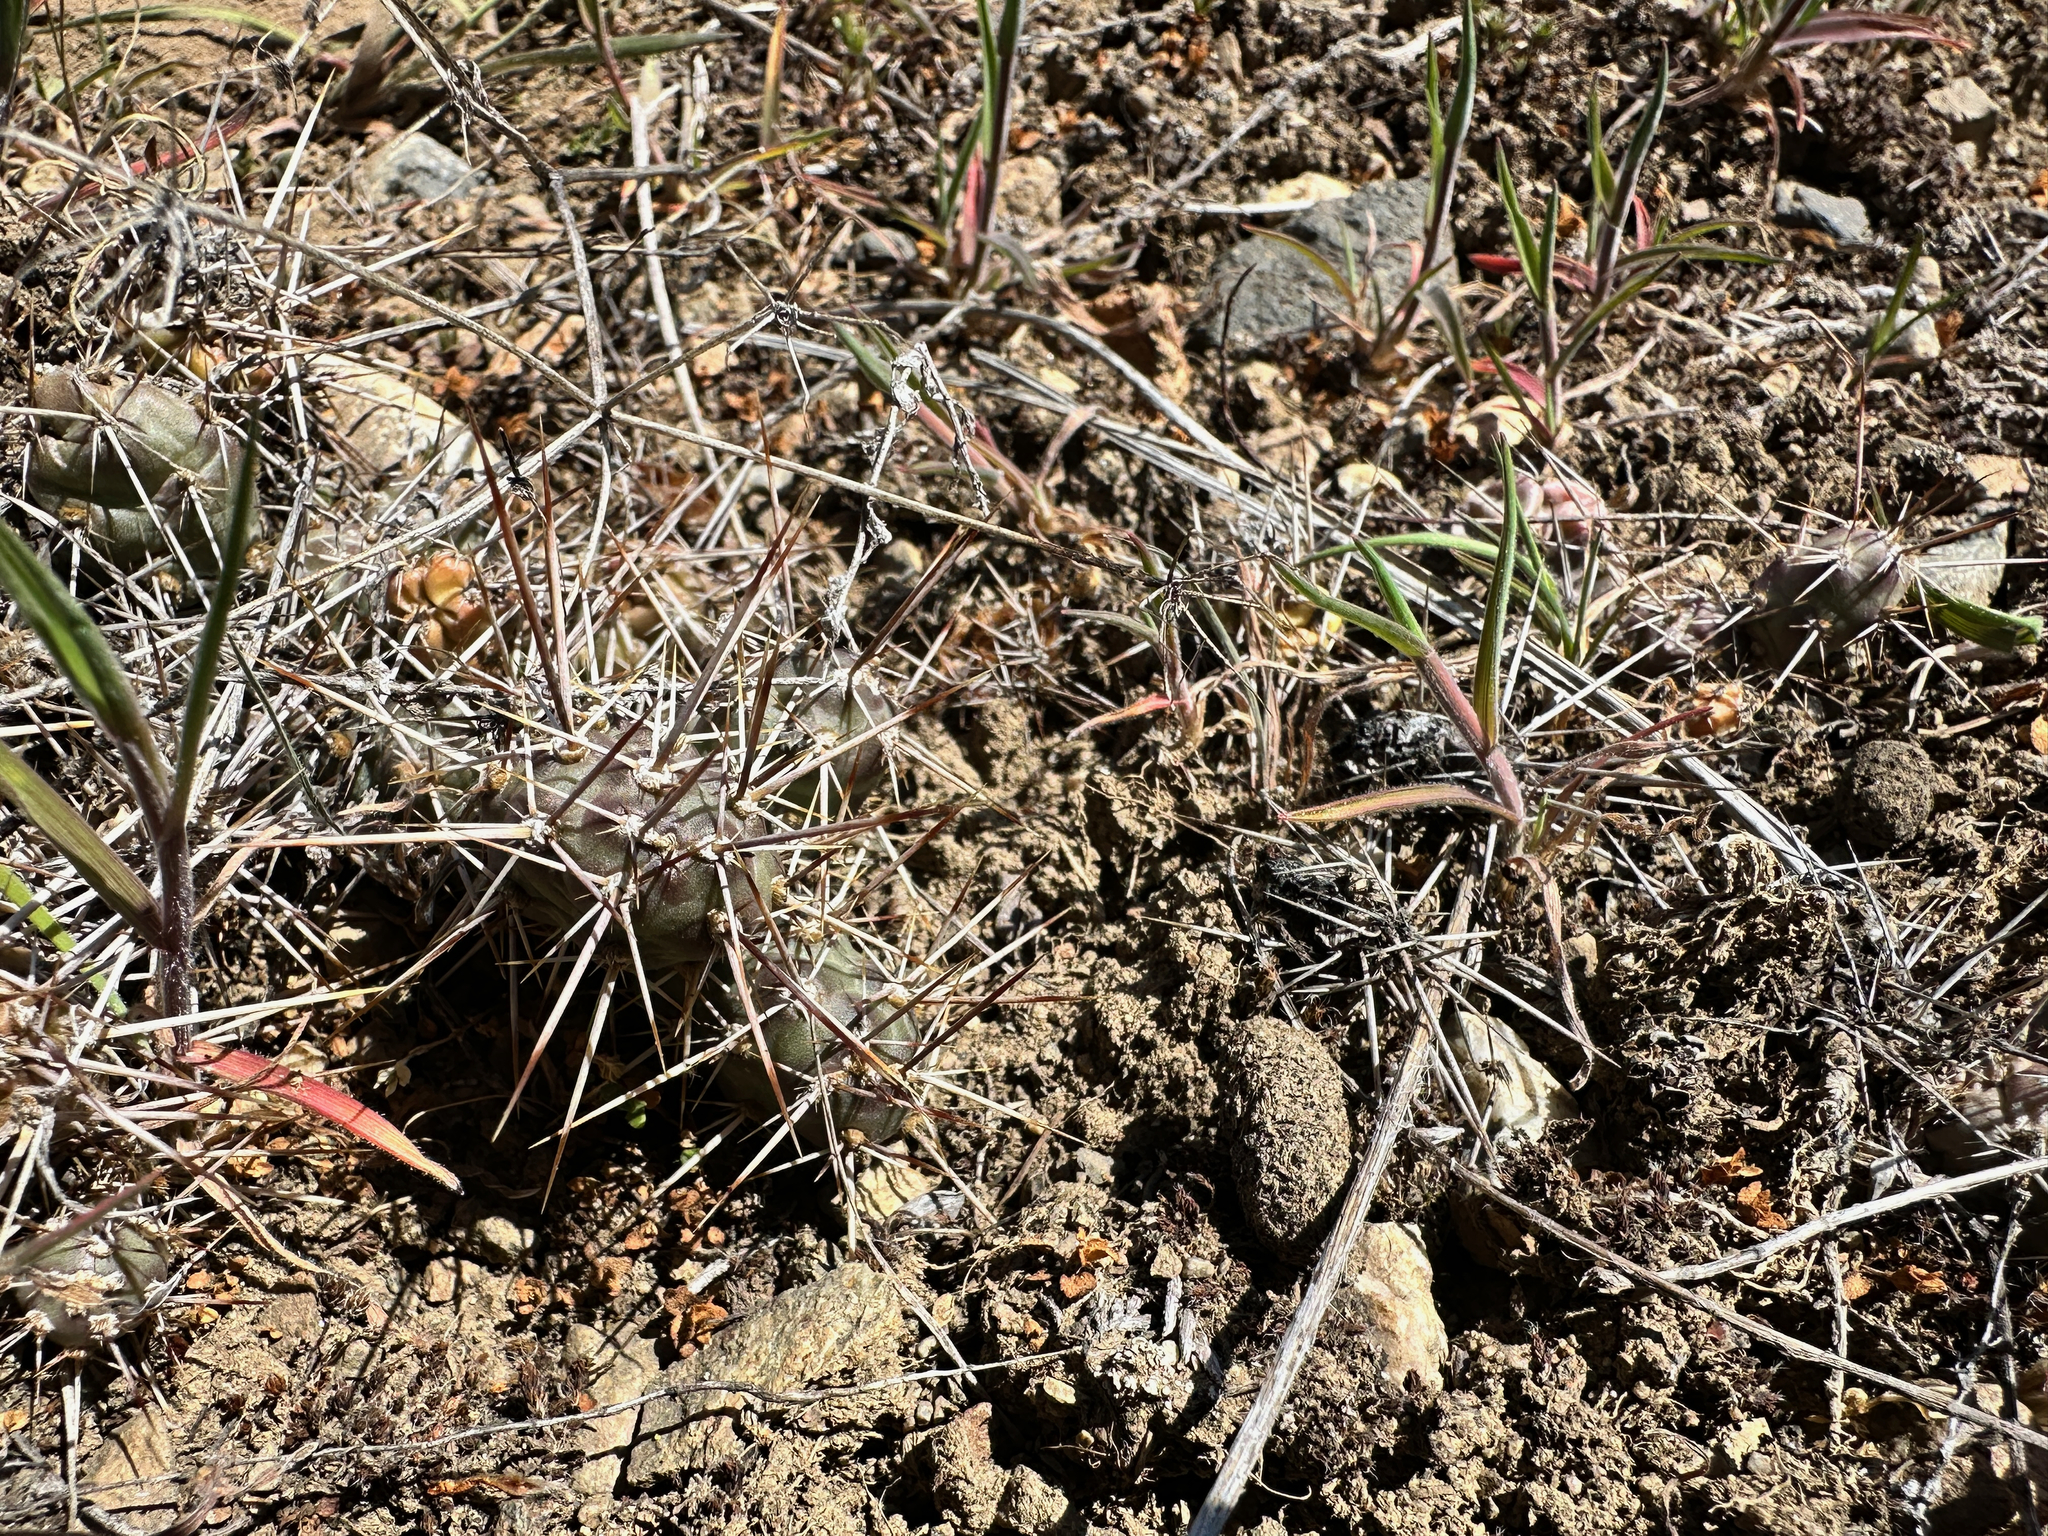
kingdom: Plantae
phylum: Tracheophyta
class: Magnoliopsida
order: Caryophyllales
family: Cactaceae
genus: Opuntia
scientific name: Opuntia fragilis
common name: Brittle cactus
